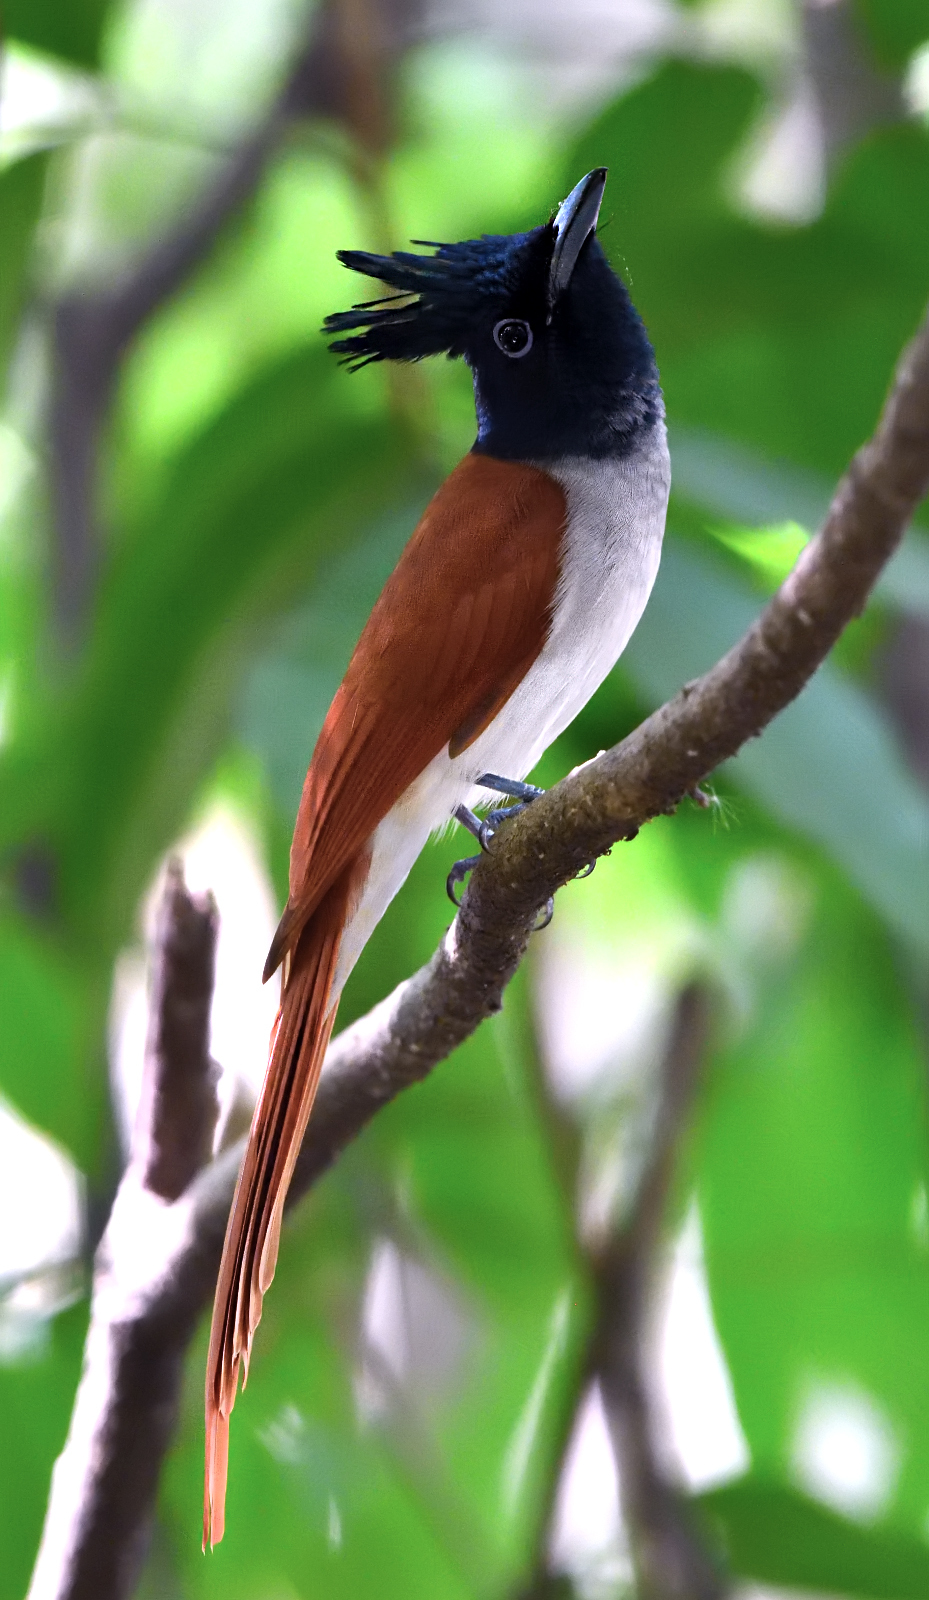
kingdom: Animalia
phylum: Chordata
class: Aves
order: Passeriformes
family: Monarchidae
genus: Terpsiphone
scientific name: Terpsiphone paradisi
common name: Indian paradise flycatcher
